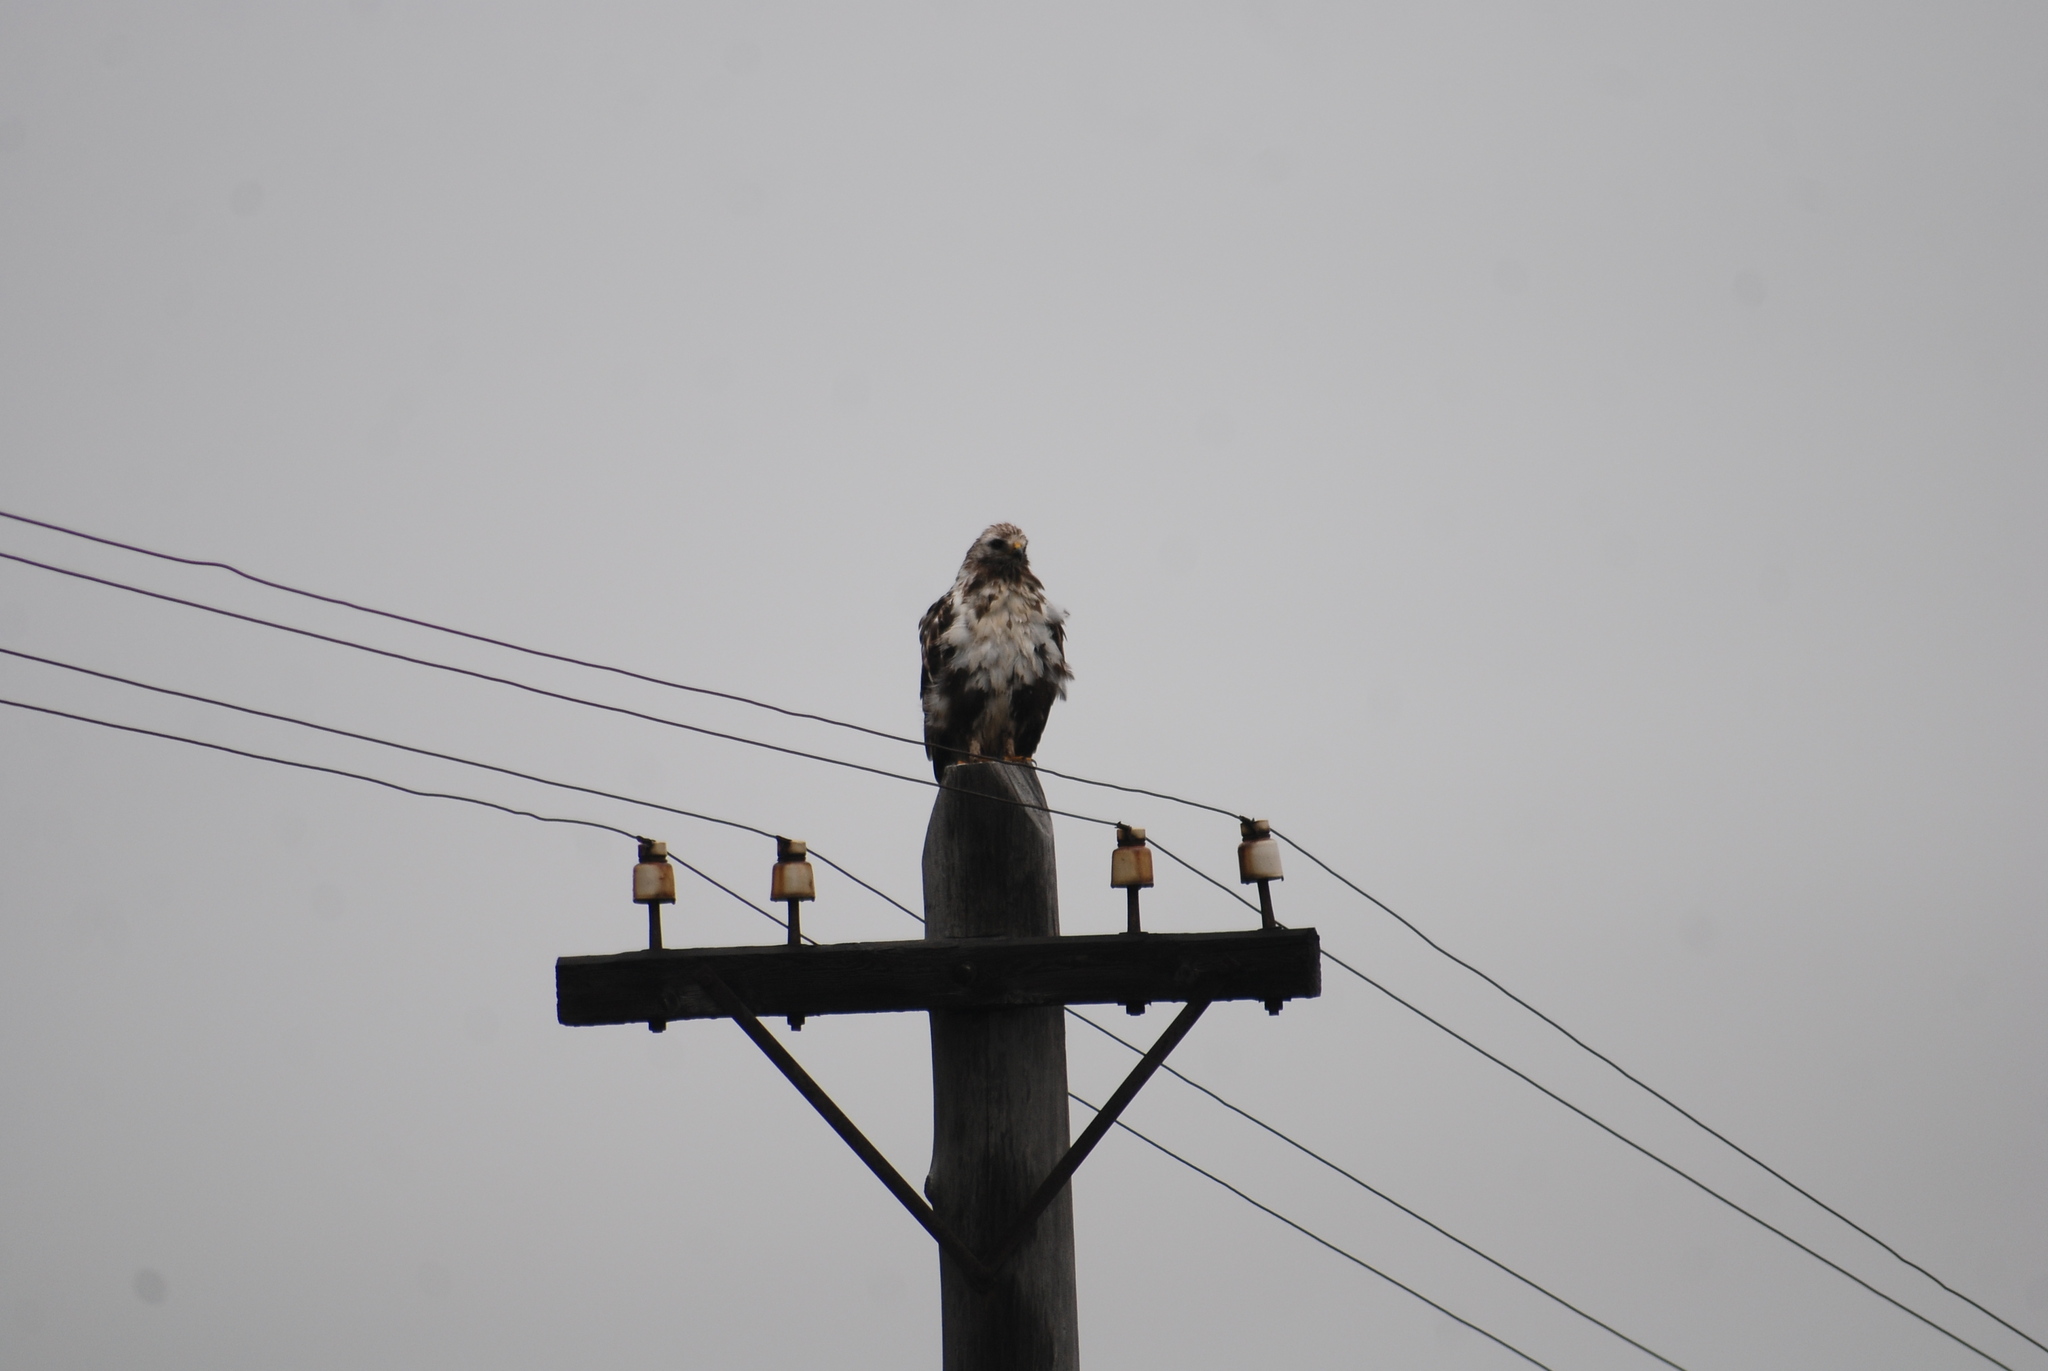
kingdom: Animalia
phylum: Chordata
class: Aves
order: Accipitriformes
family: Accipitridae
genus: Buteo
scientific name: Buteo lagopus
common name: Rough-legged buzzard
